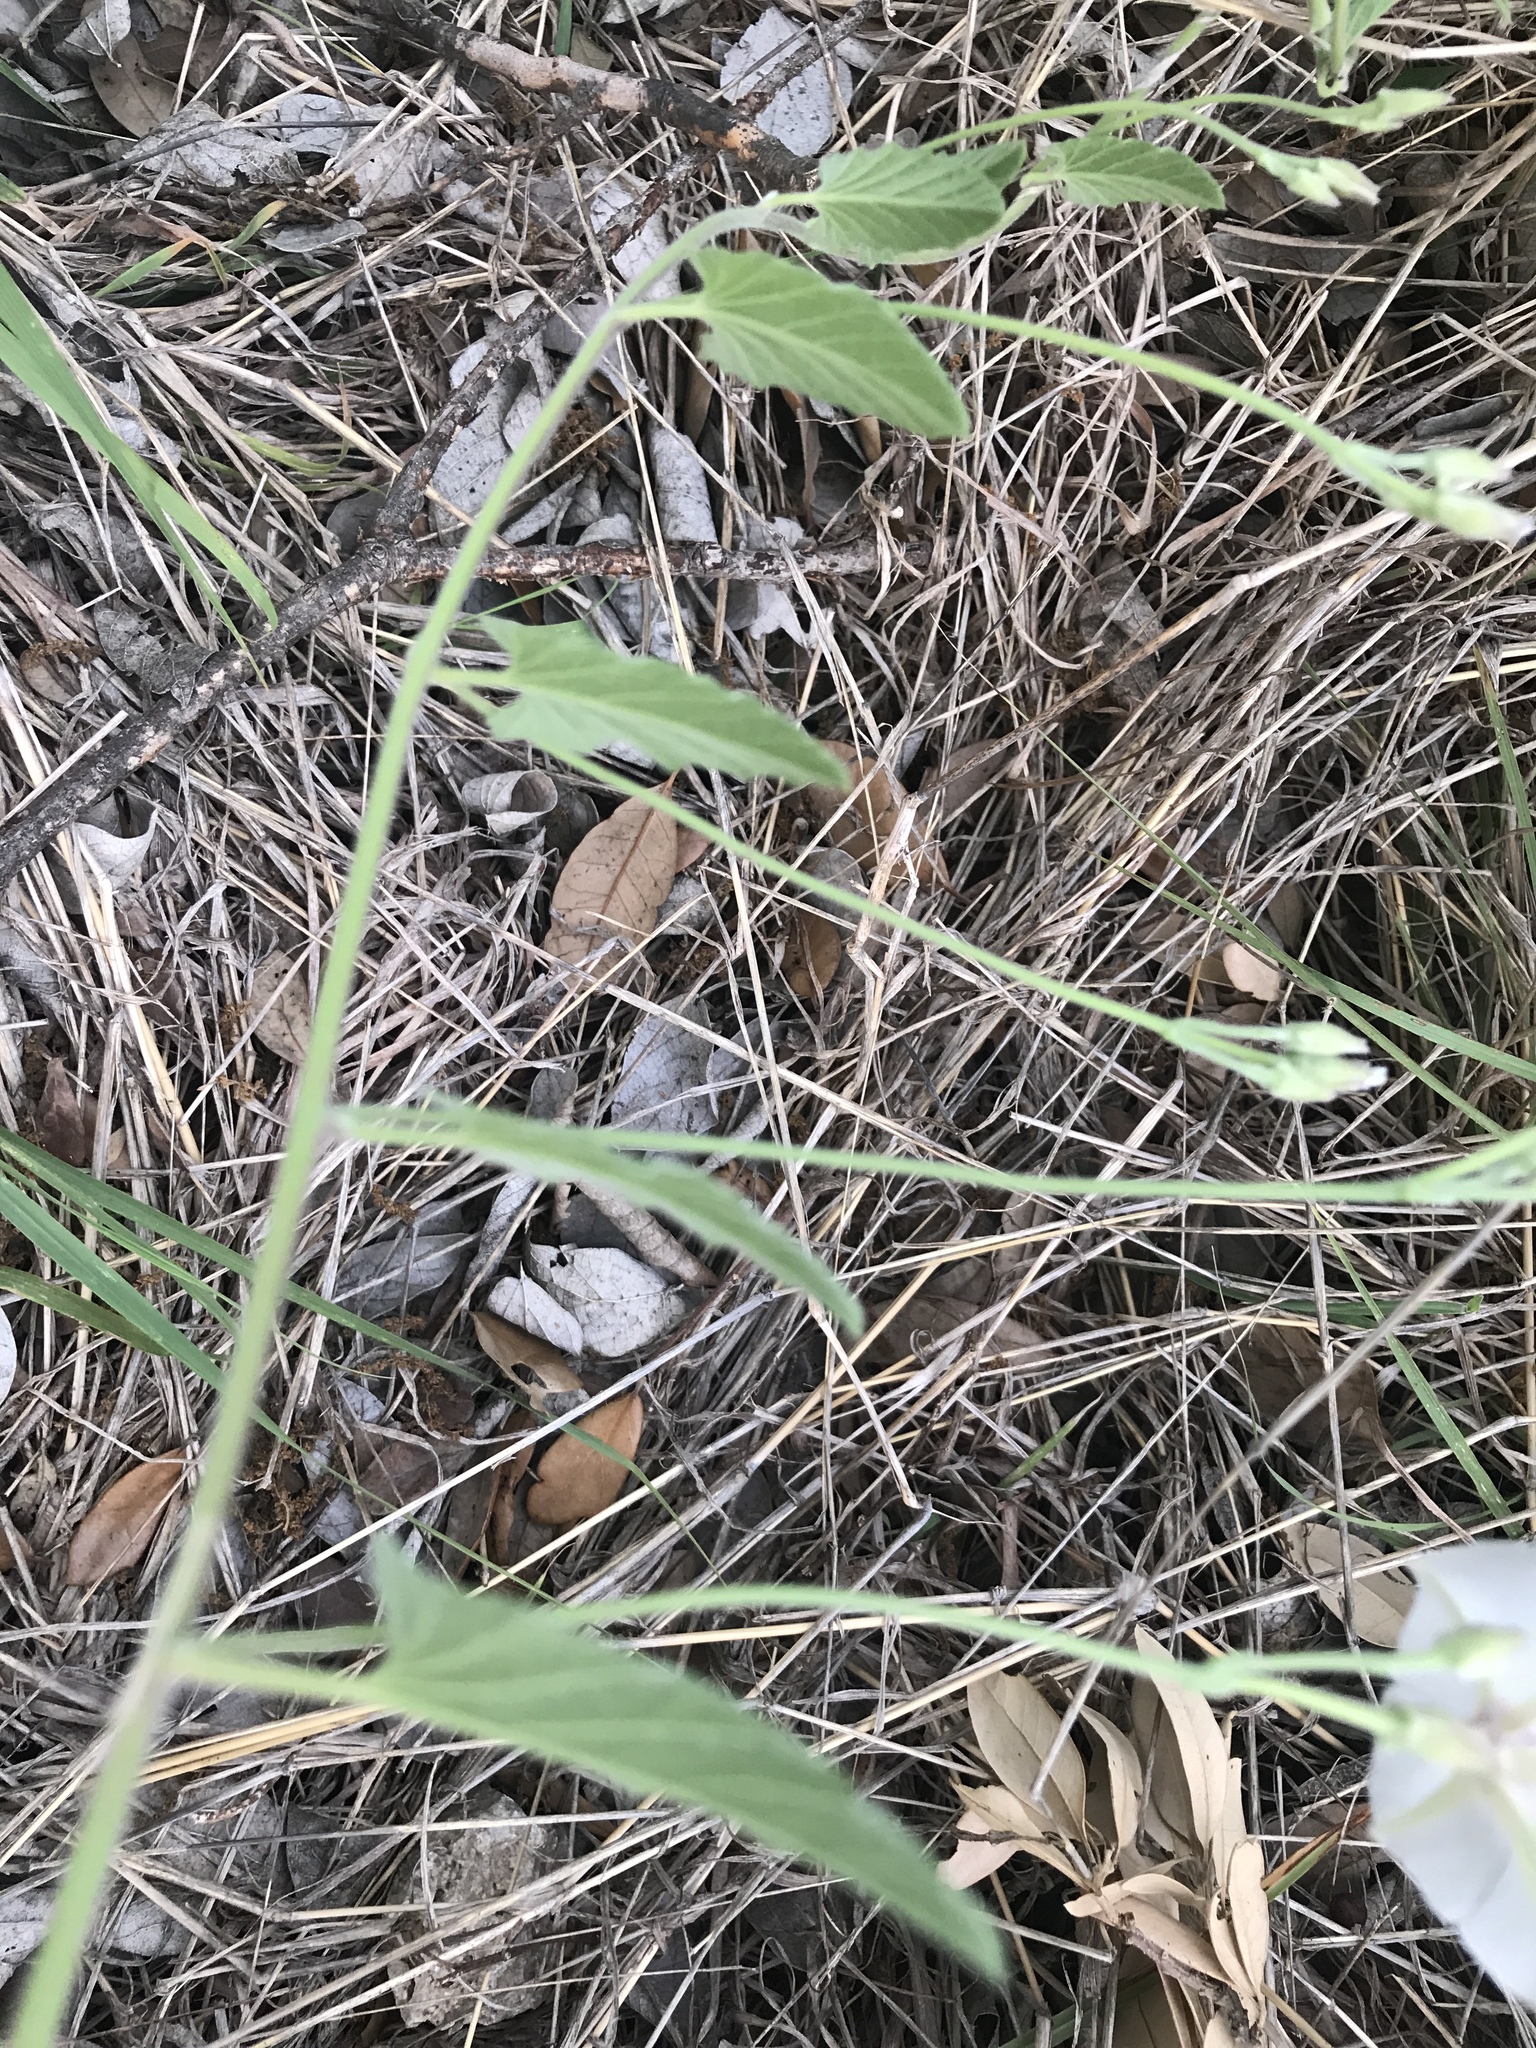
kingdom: Plantae
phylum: Tracheophyta
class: Magnoliopsida
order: Solanales
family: Convolvulaceae
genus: Convolvulus
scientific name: Convolvulus equitans
